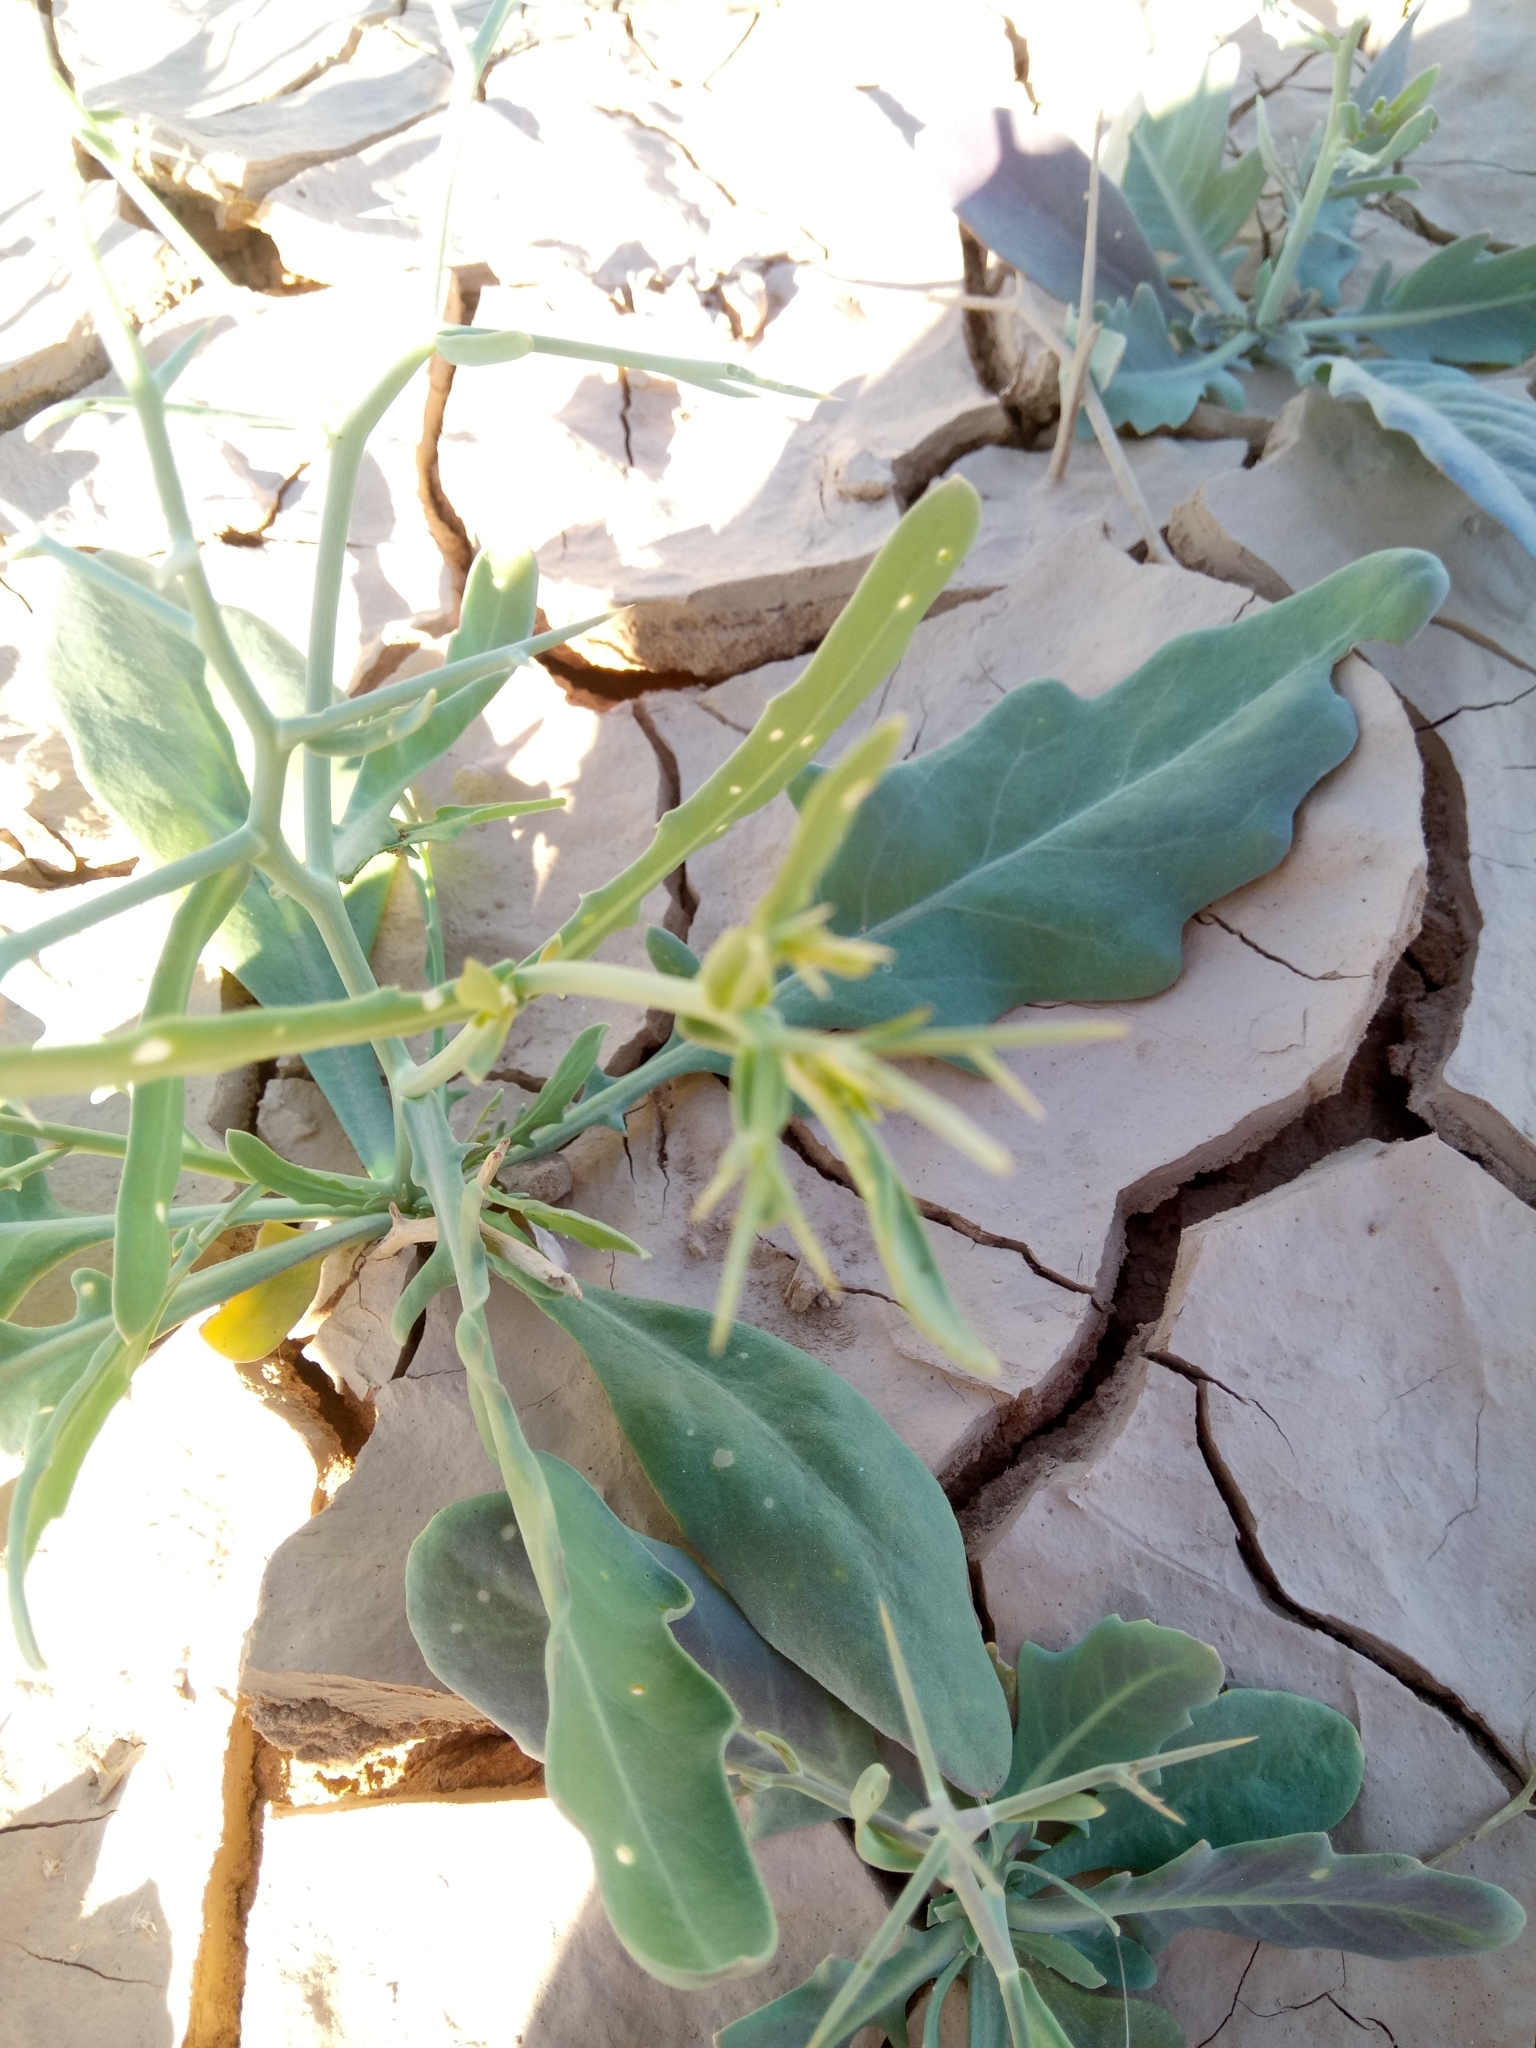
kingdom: Plantae
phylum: Tracheophyta
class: Magnoliopsida
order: Brassicales
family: Brassicaceae
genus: Zilla
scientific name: Zilla spinosa
